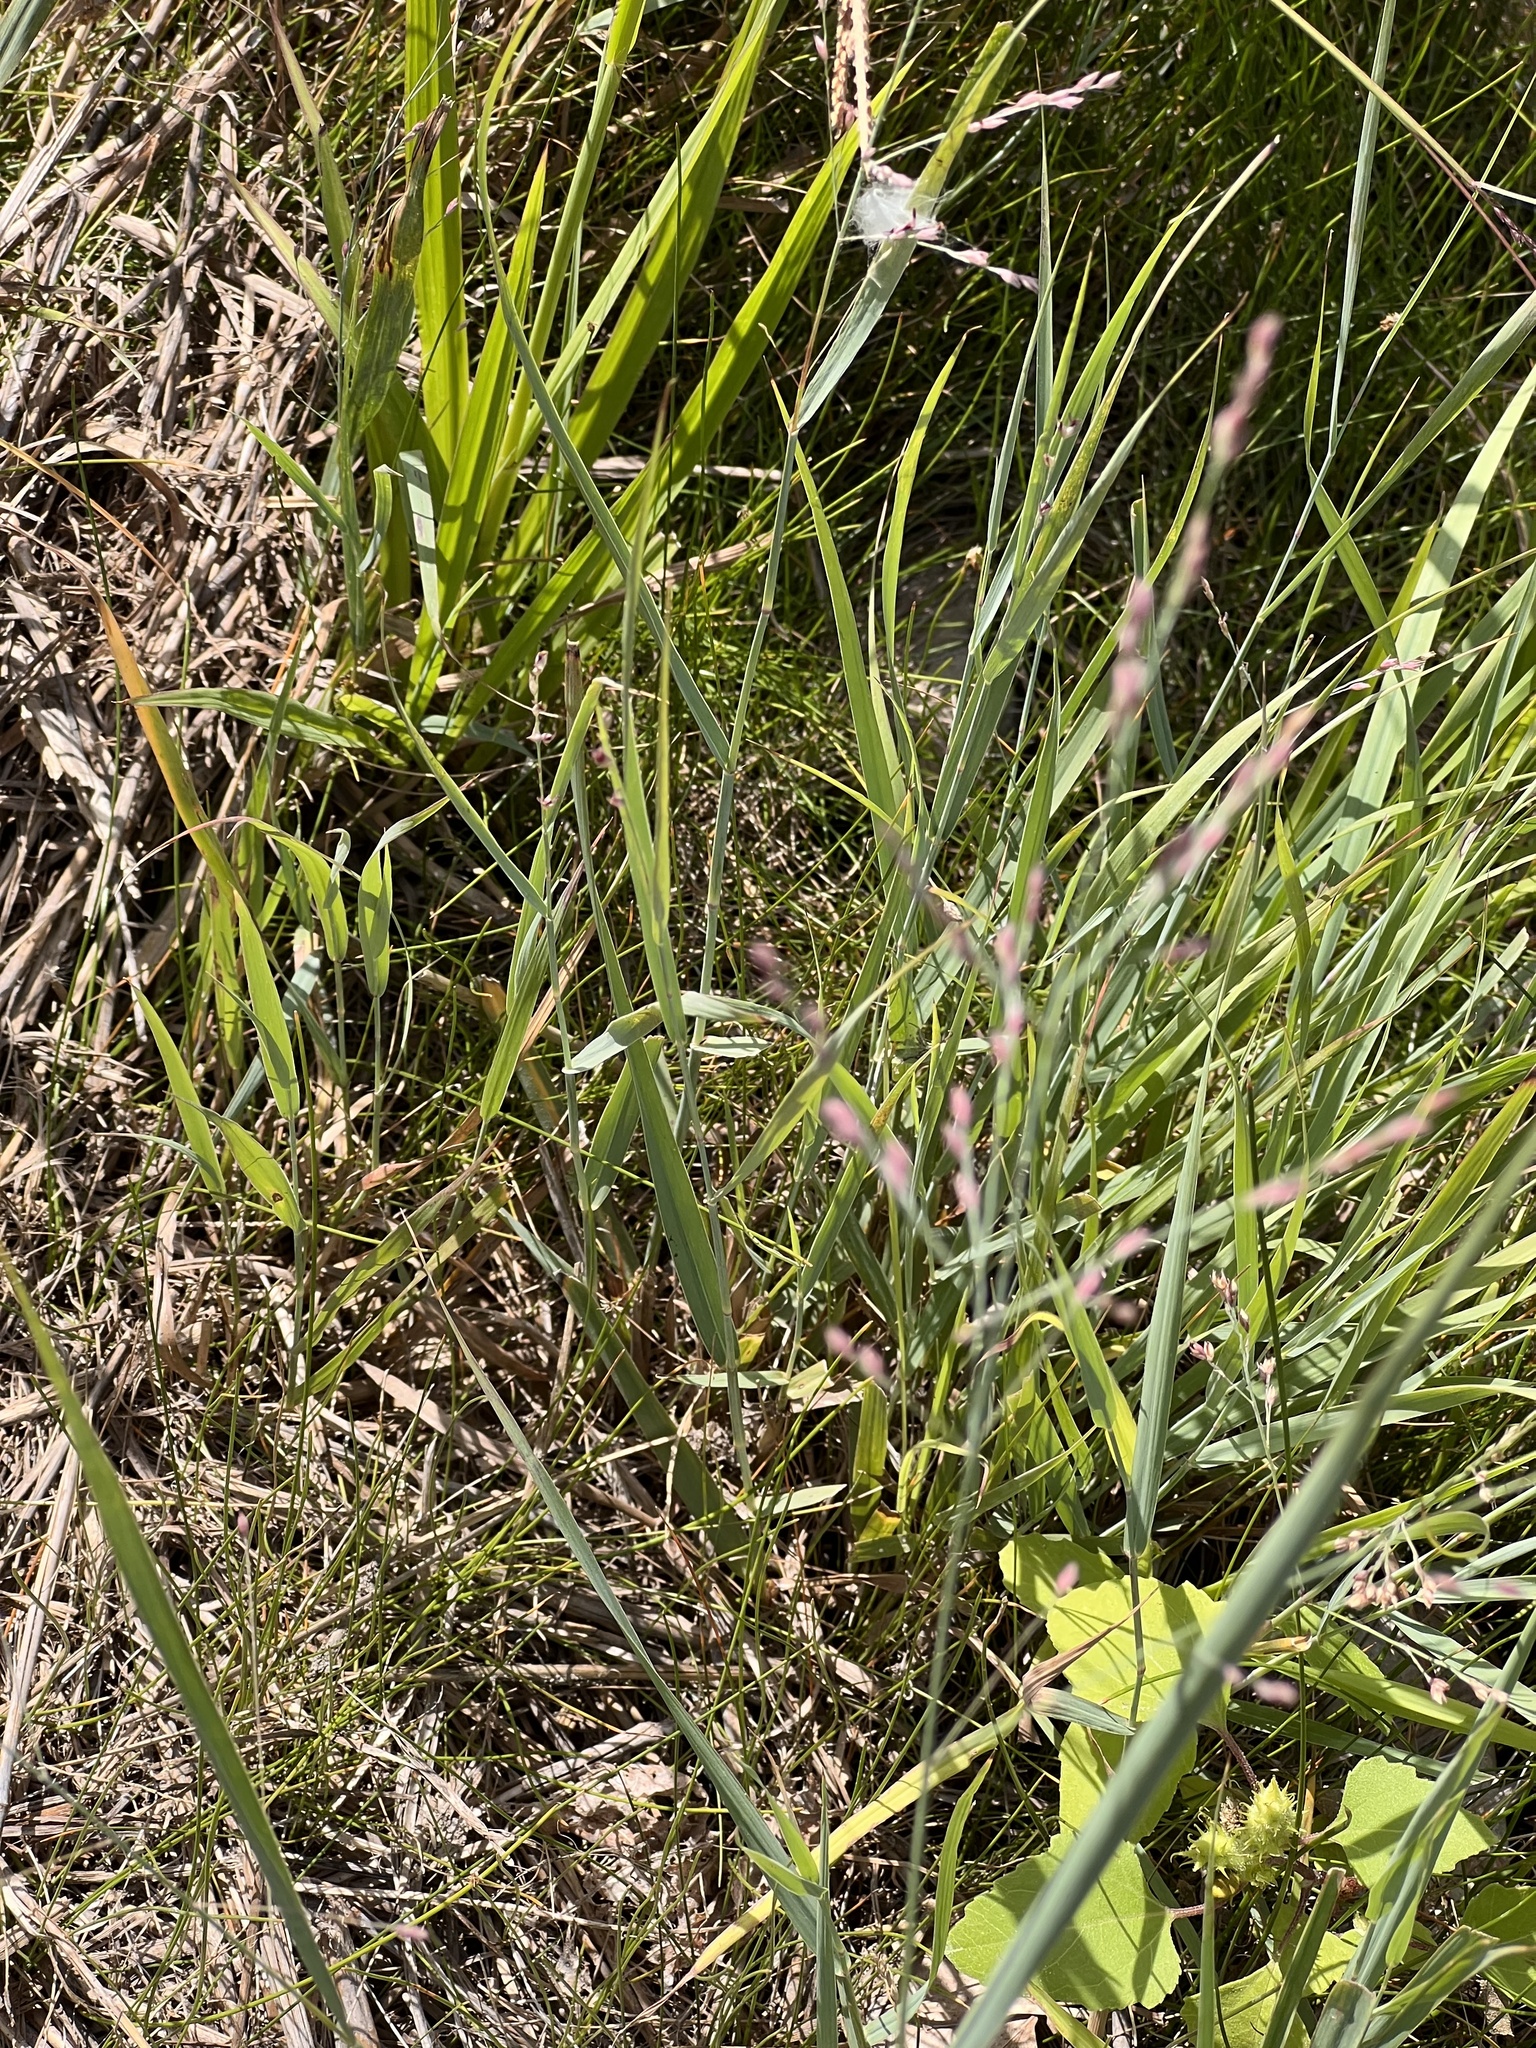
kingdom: Plantae
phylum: Tracheophyta
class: Liliopsida
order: Poales
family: Poaceae
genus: Panicum
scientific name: Panicum virgatum
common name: Switchgrass
